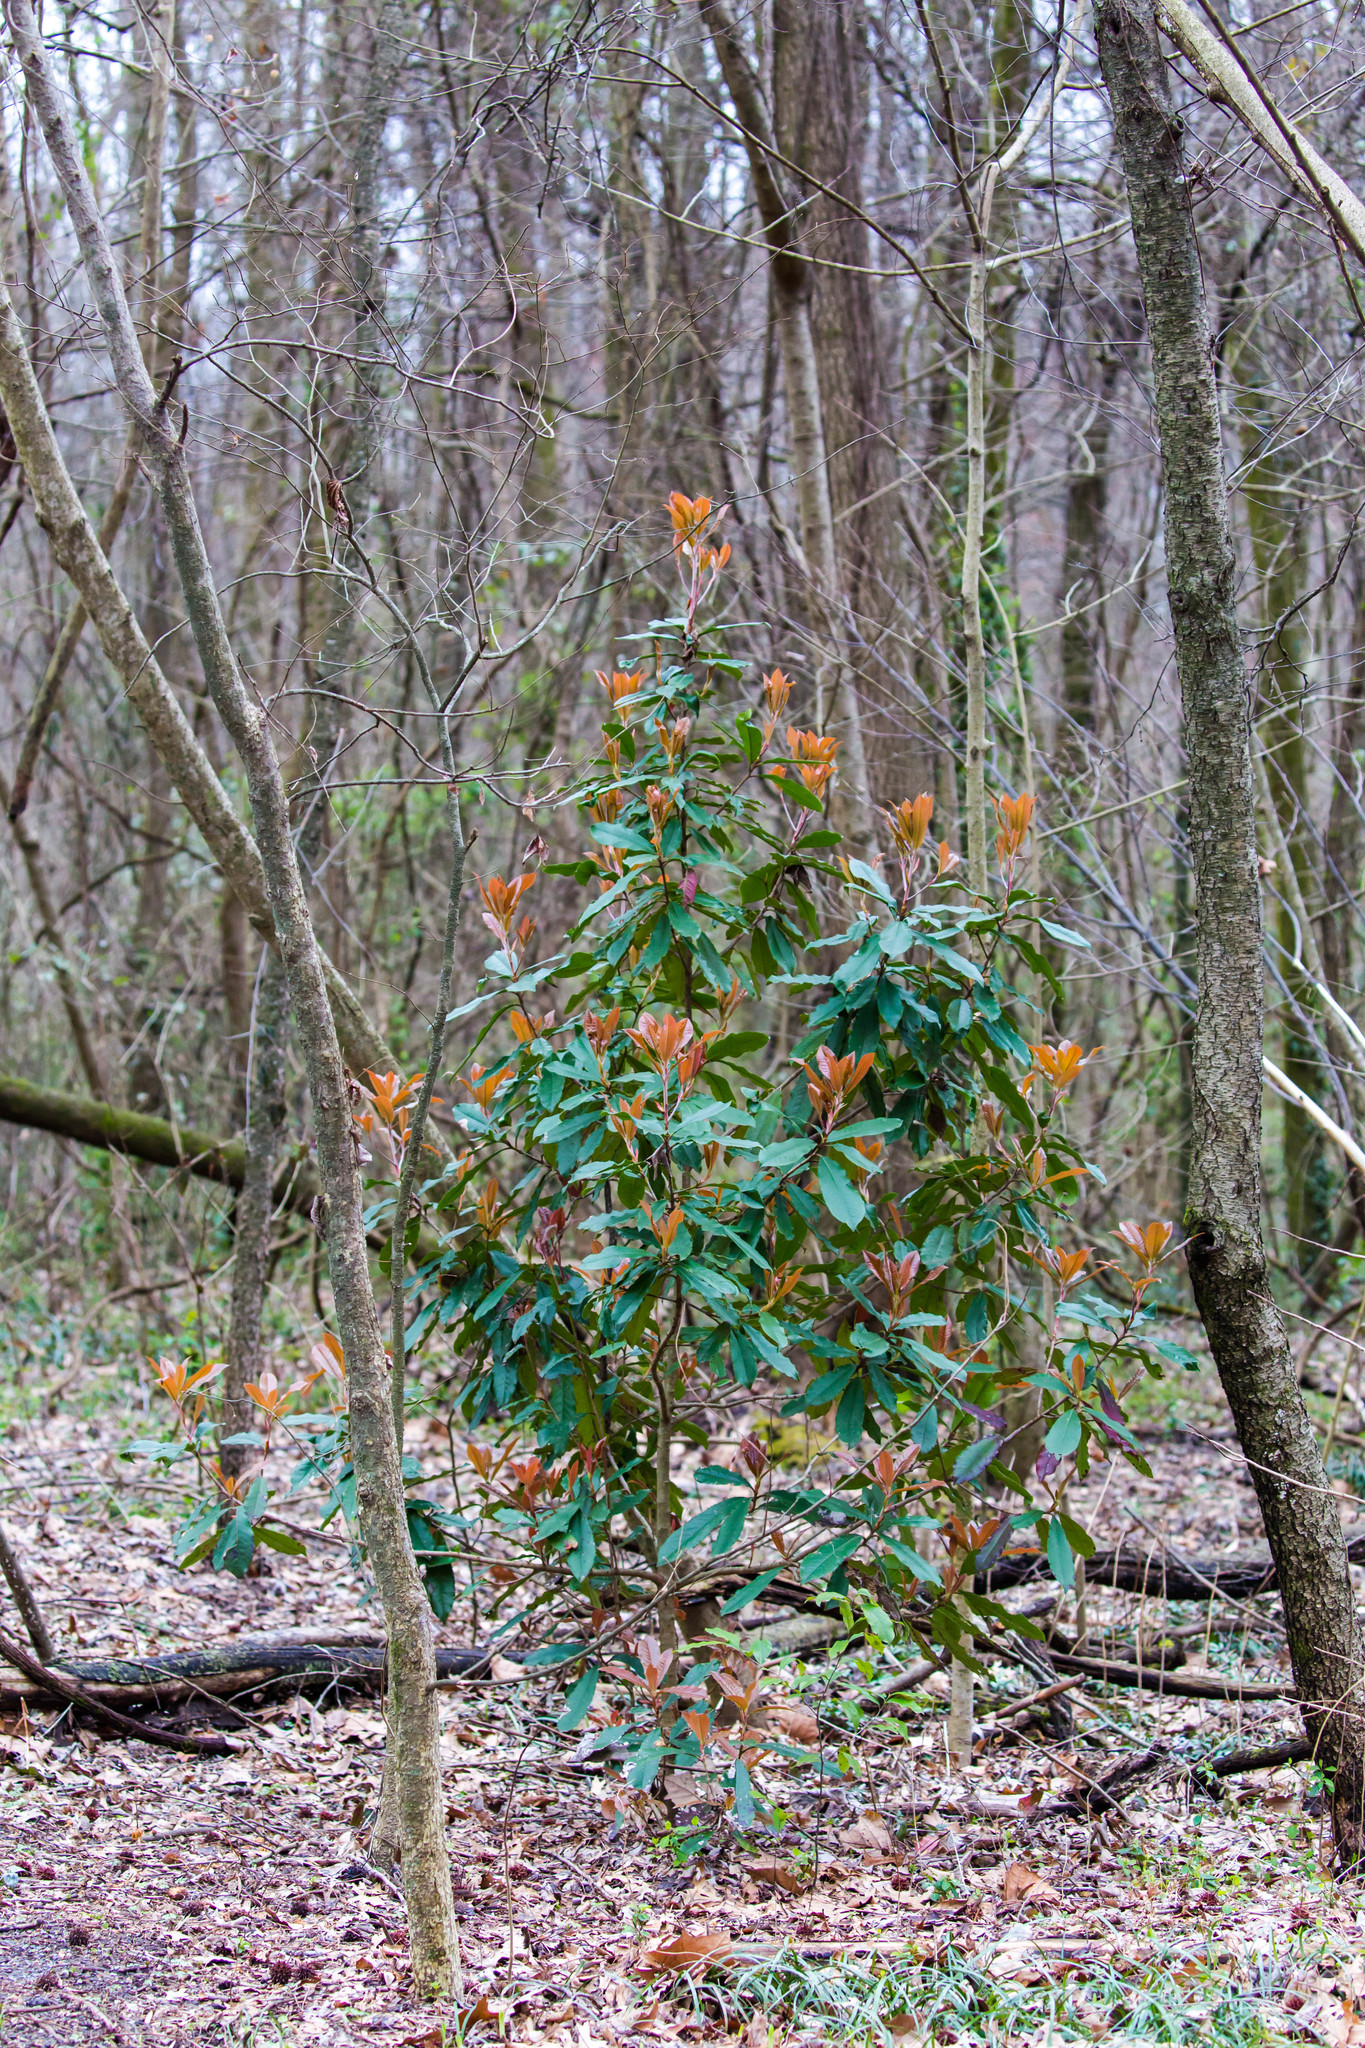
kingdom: Plantae
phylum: Tracheophyta
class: Magnoliopsida
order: Rosales
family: Rosaceae
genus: Prunus
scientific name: Prunus caroliniana
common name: Carolina laurel cherry
